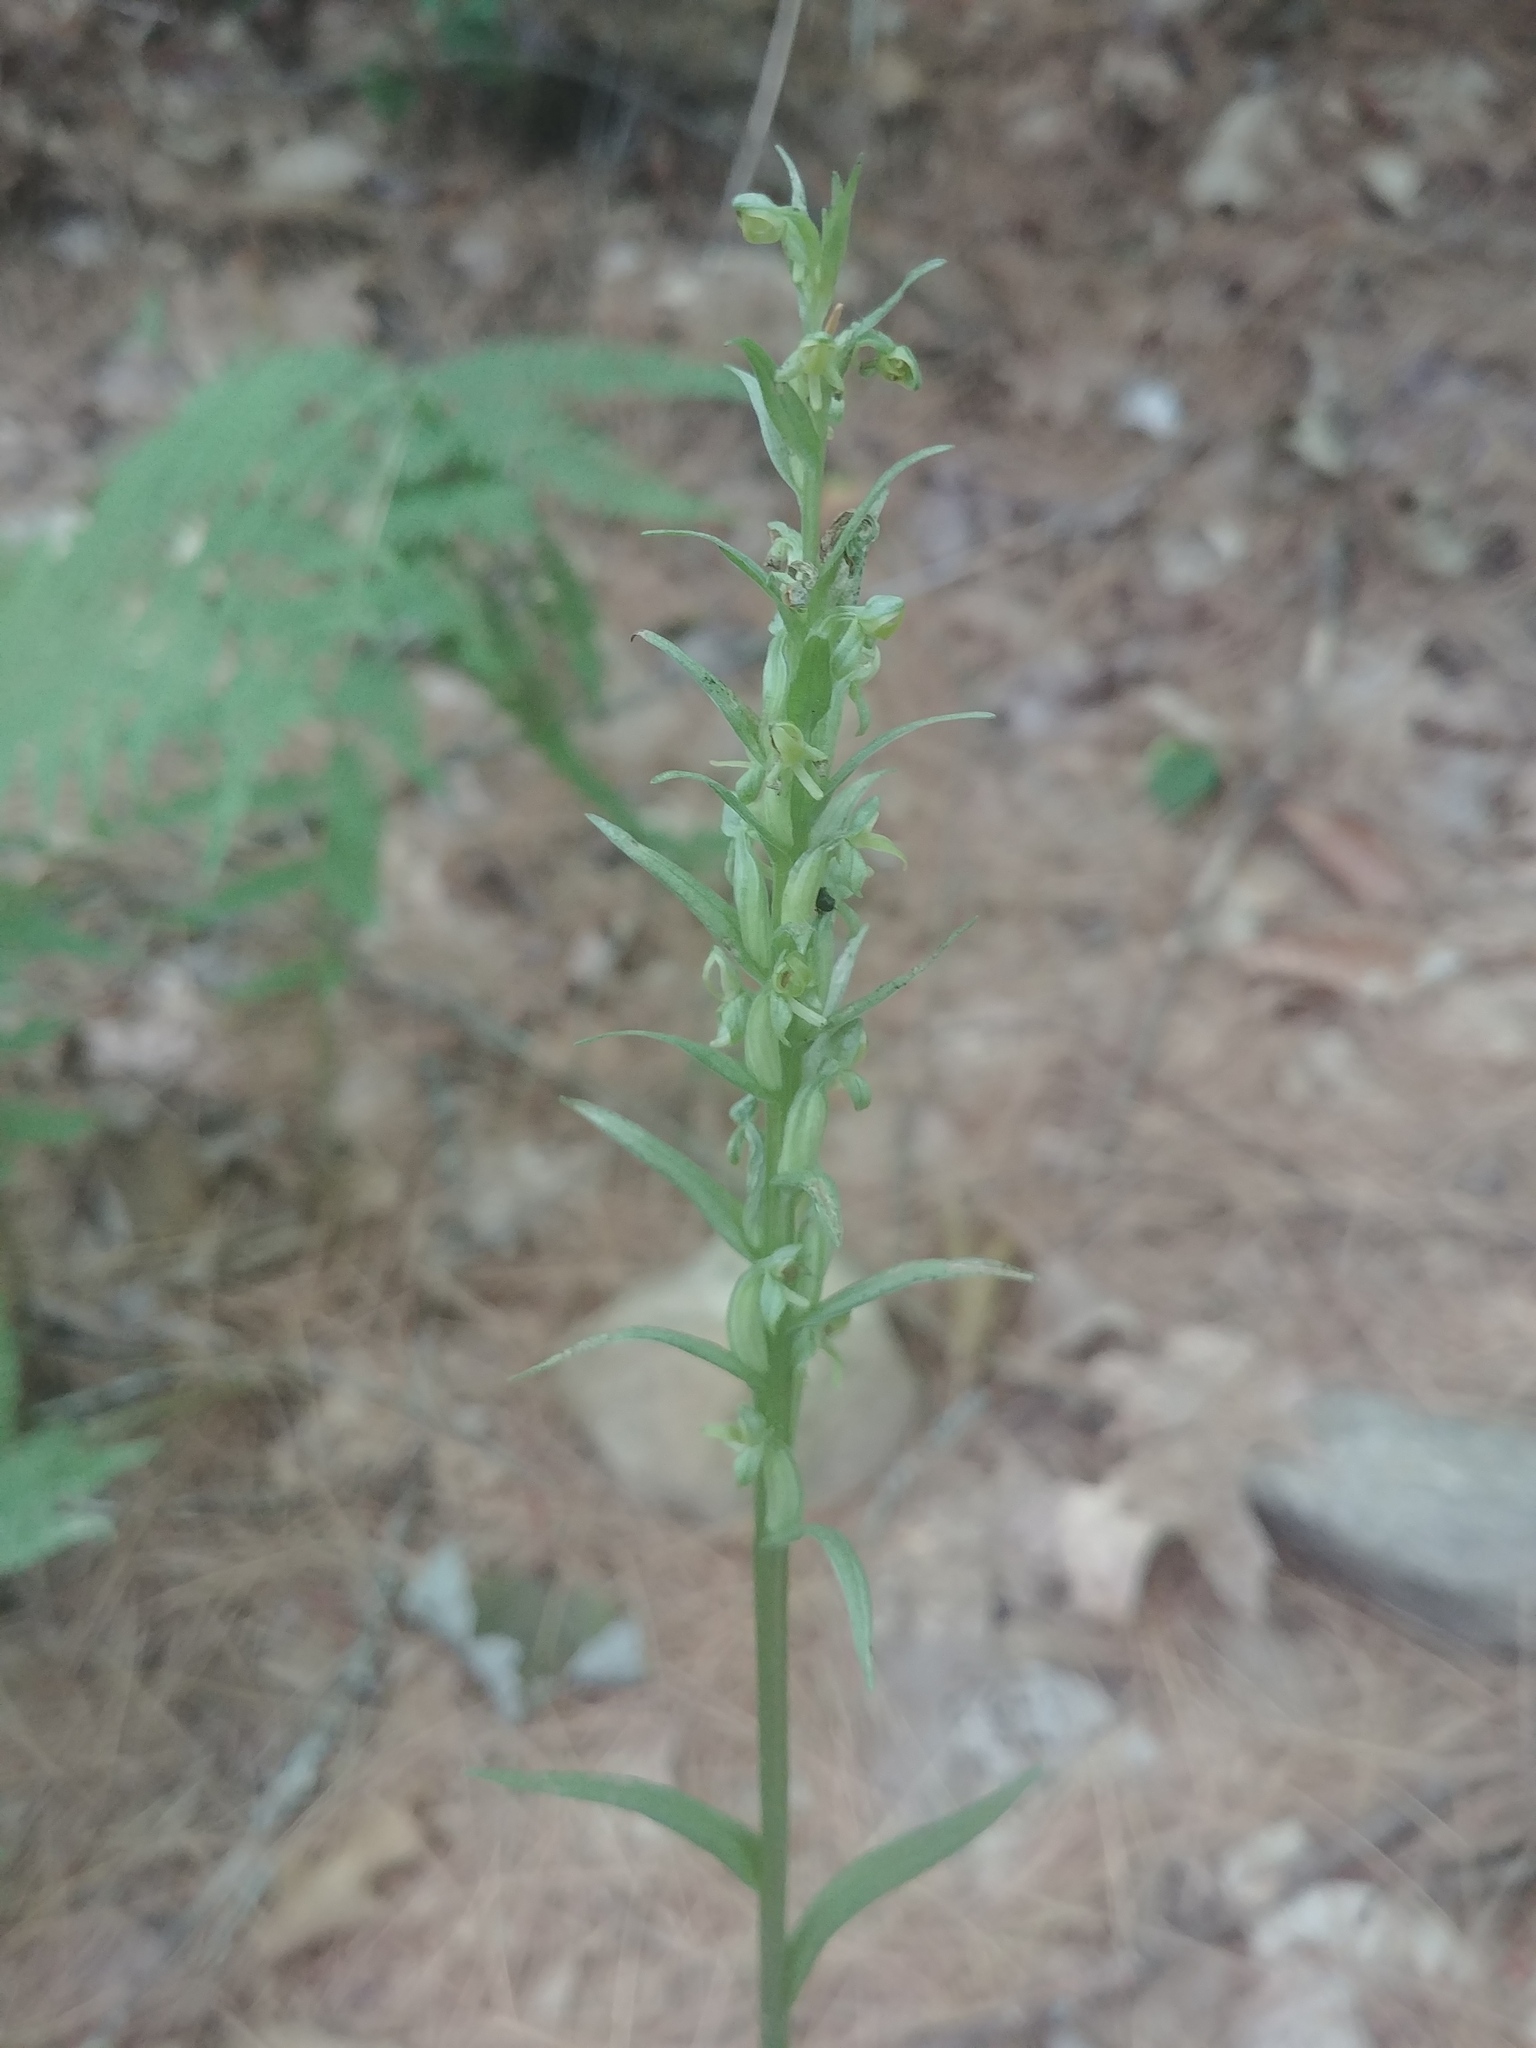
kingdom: Plantae
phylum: Tracheophyta
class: Liliopsida
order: Asparagales
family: Orchidaceae
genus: Platanthera
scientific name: Platanthera aquilonis
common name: Northern green orchid
